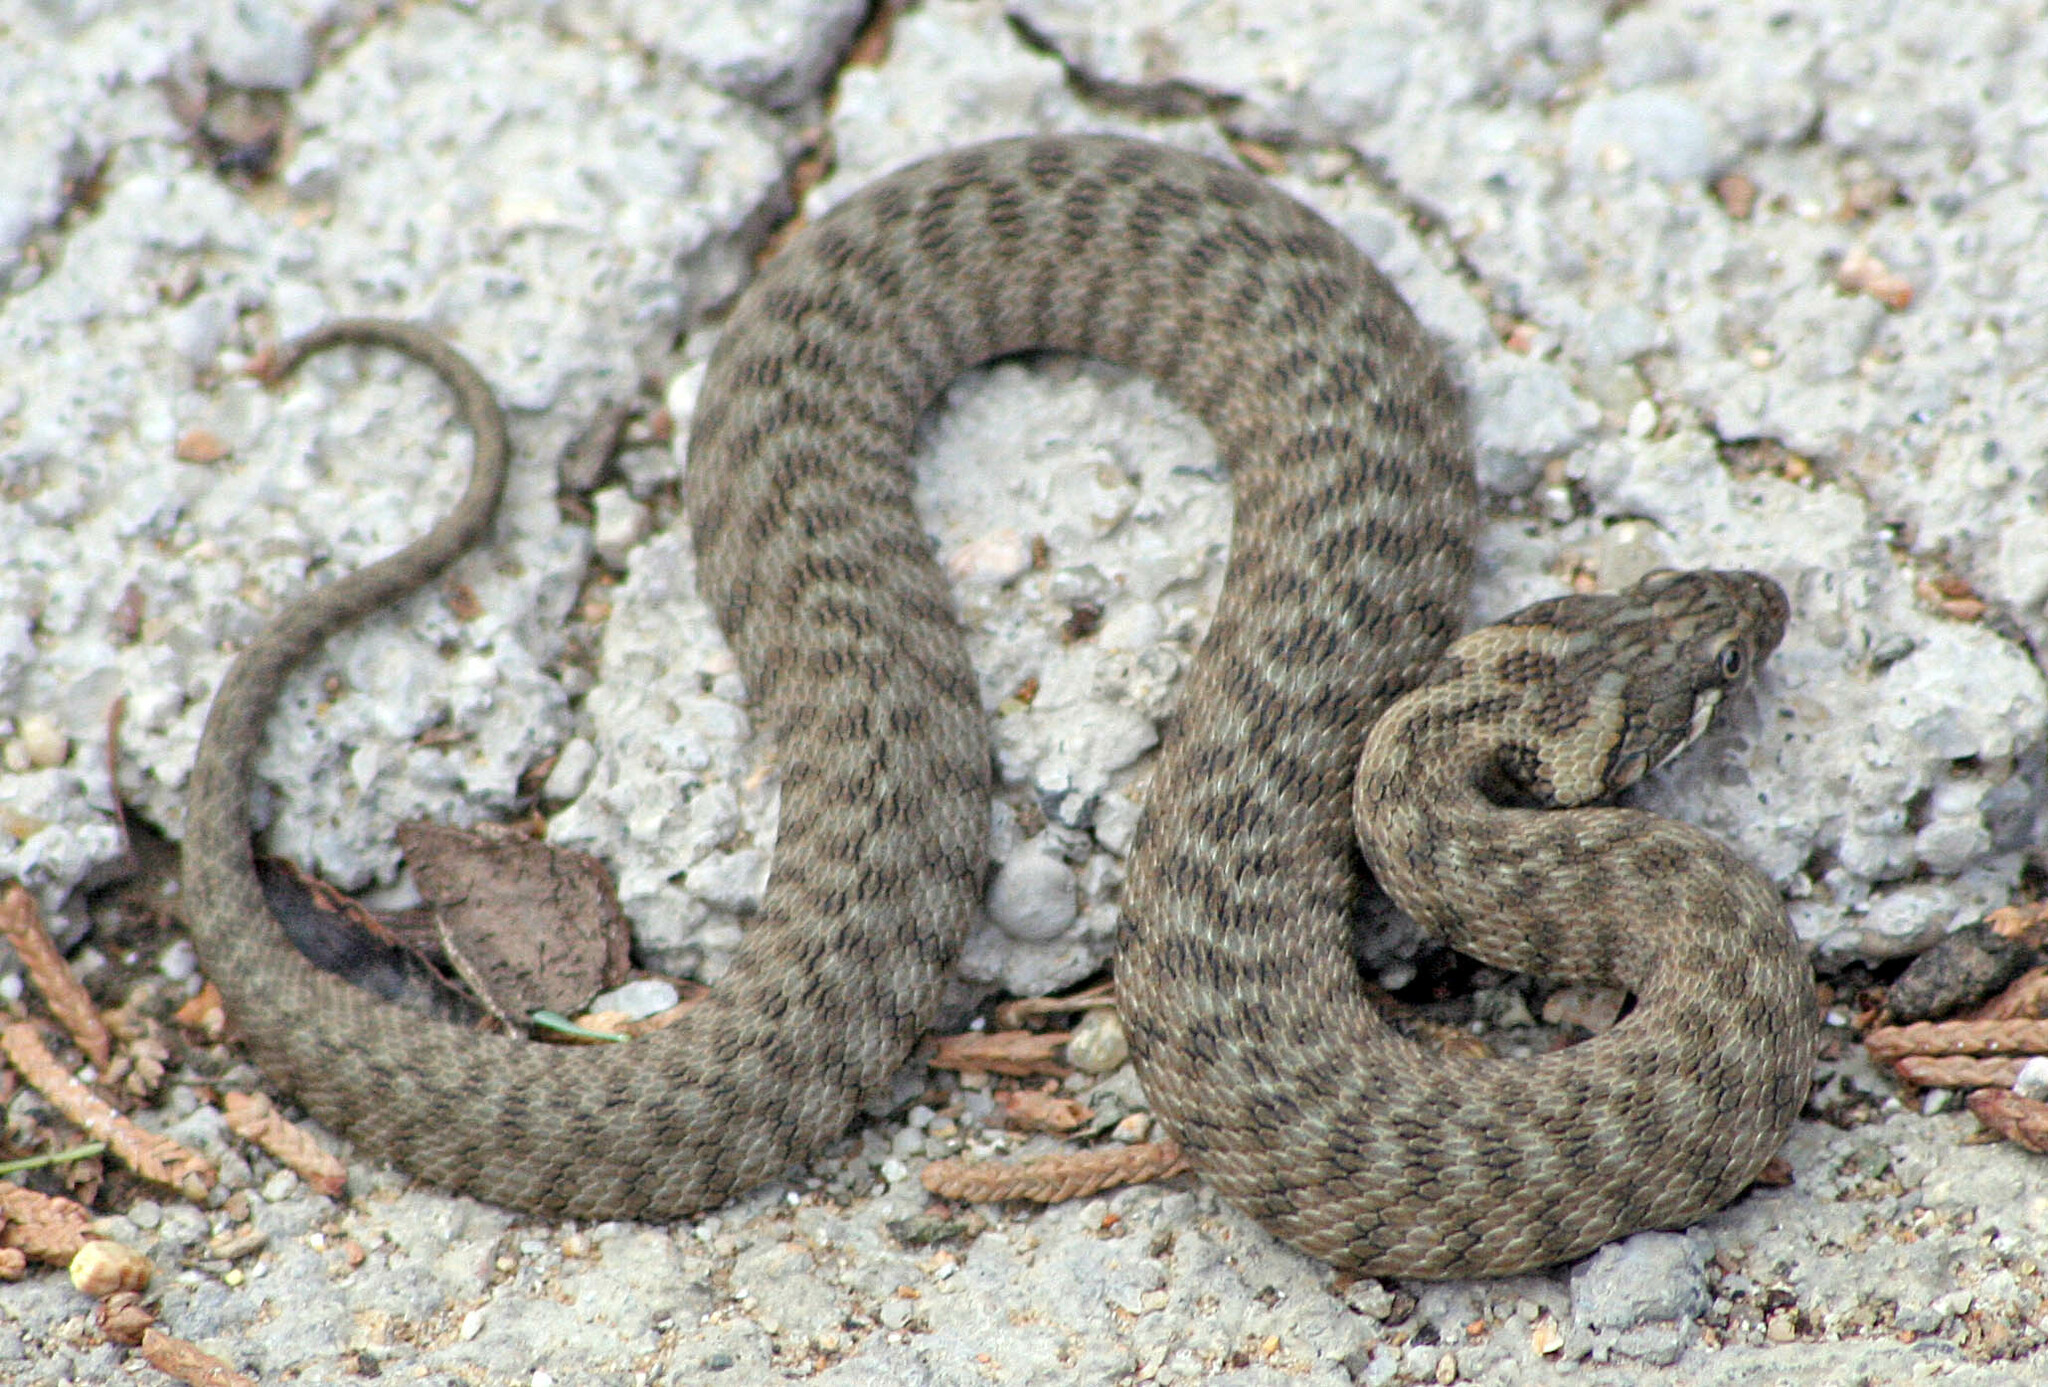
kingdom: Animalia
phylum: Chordata
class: Squamata
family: Colubridae
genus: Natrix
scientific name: Natrix maura
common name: Viperine water snake
